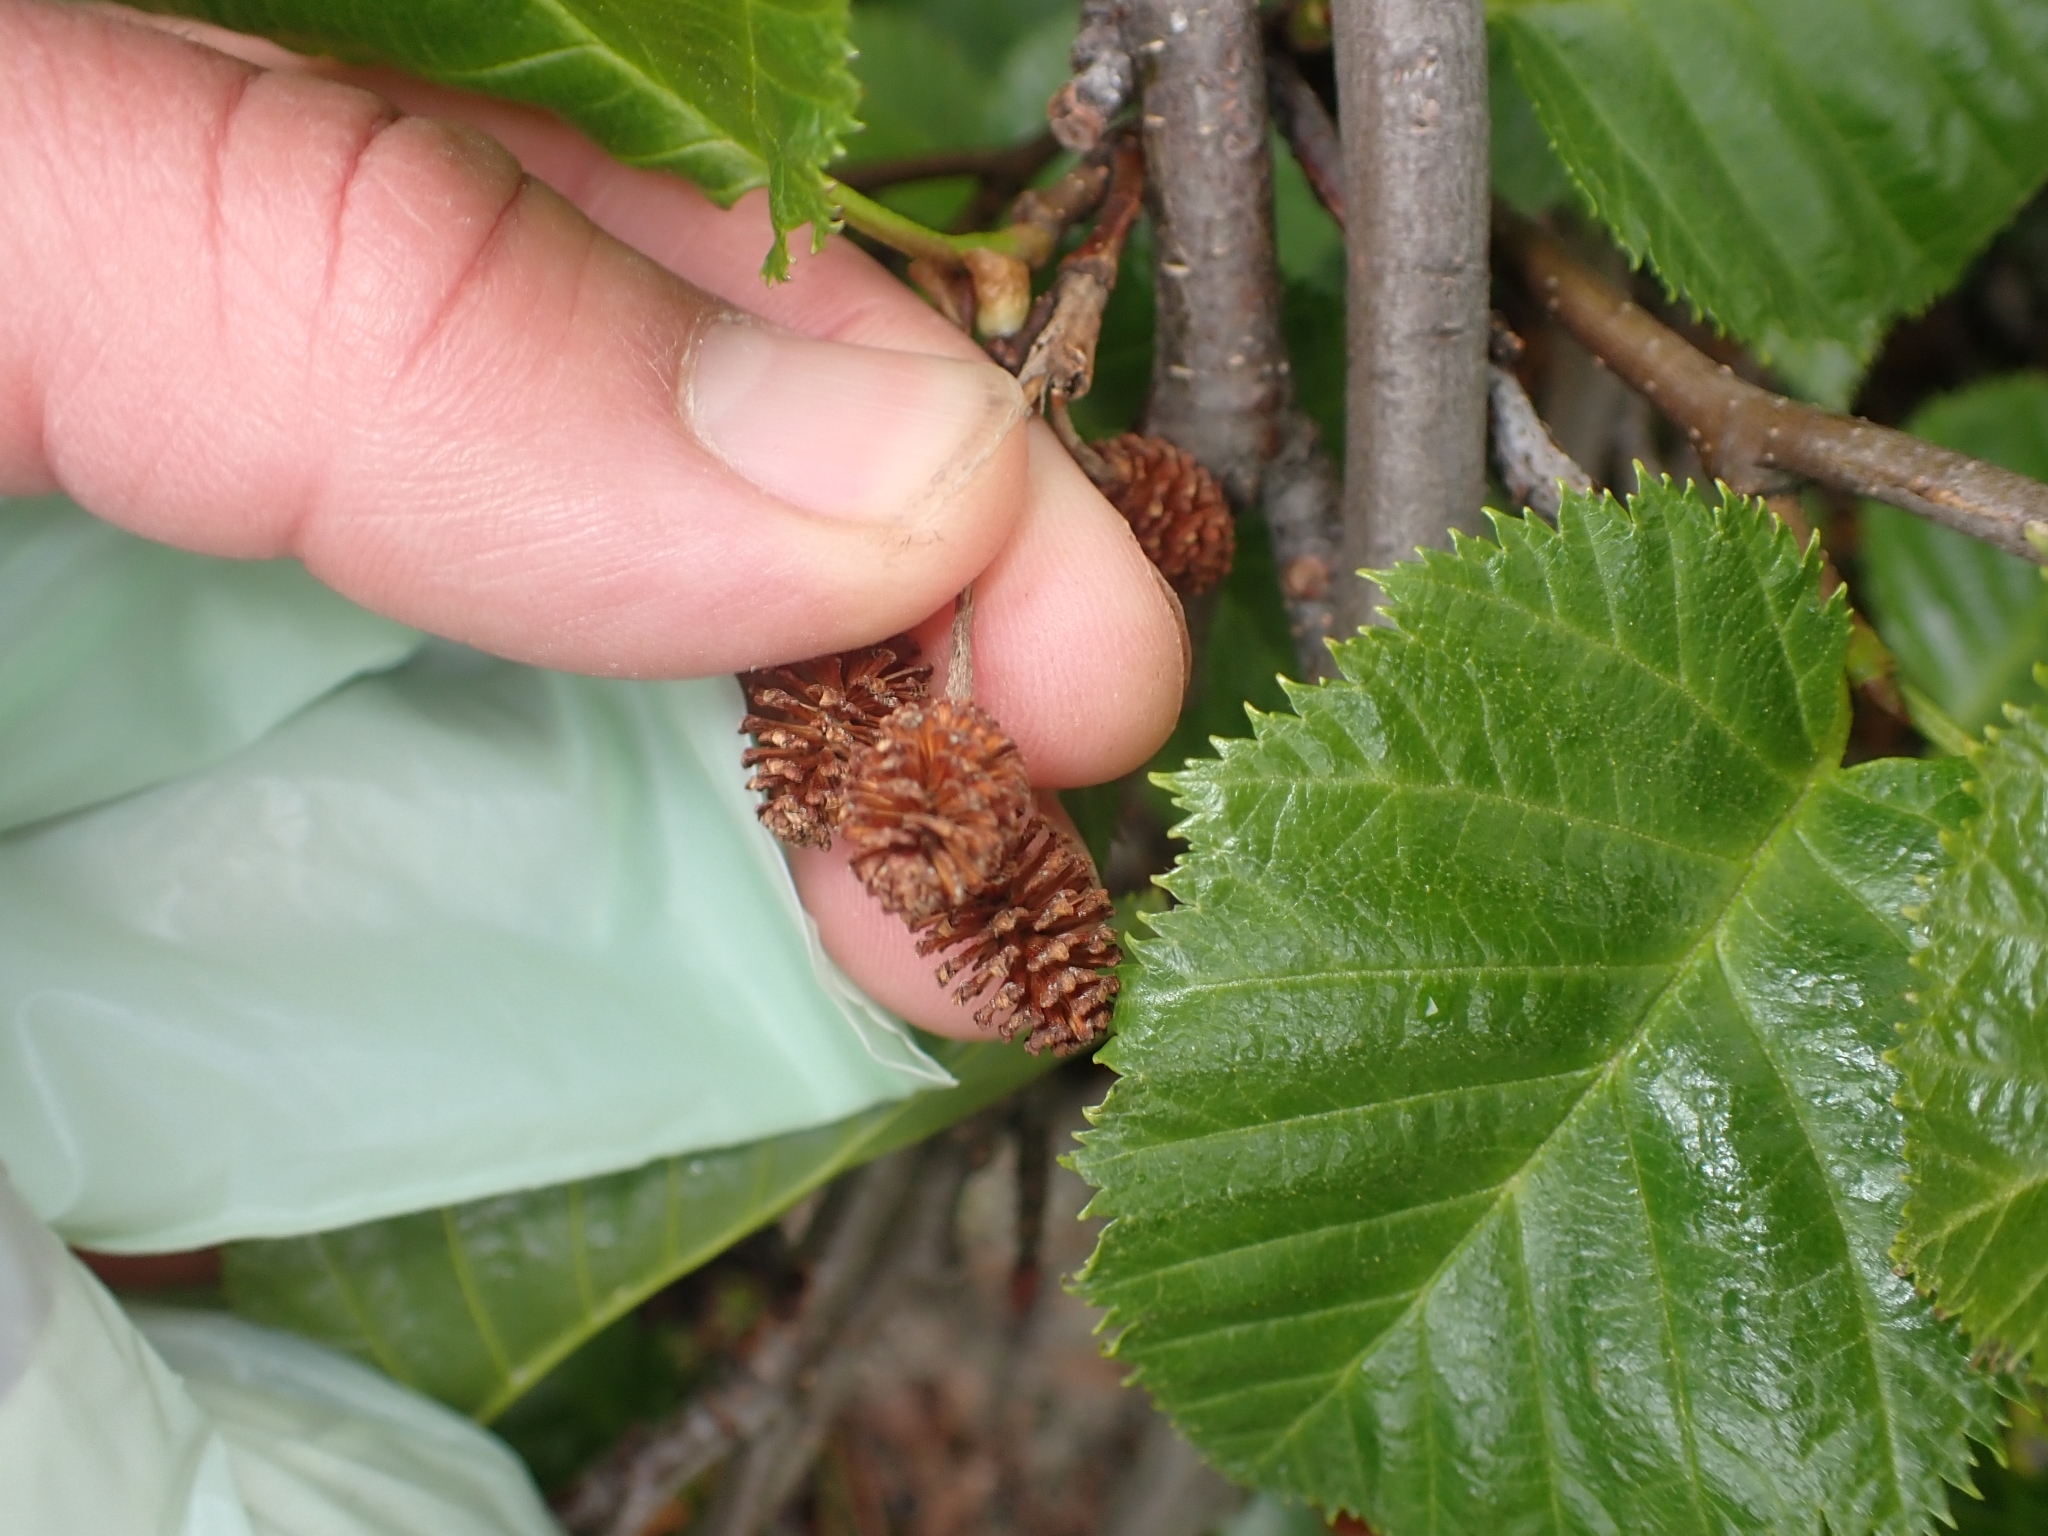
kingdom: Plantae
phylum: Tracheophyta
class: Magnoliopsida
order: Fagales
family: Betulaceae
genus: Alnus
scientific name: Alnus alnobetula
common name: Green alder
